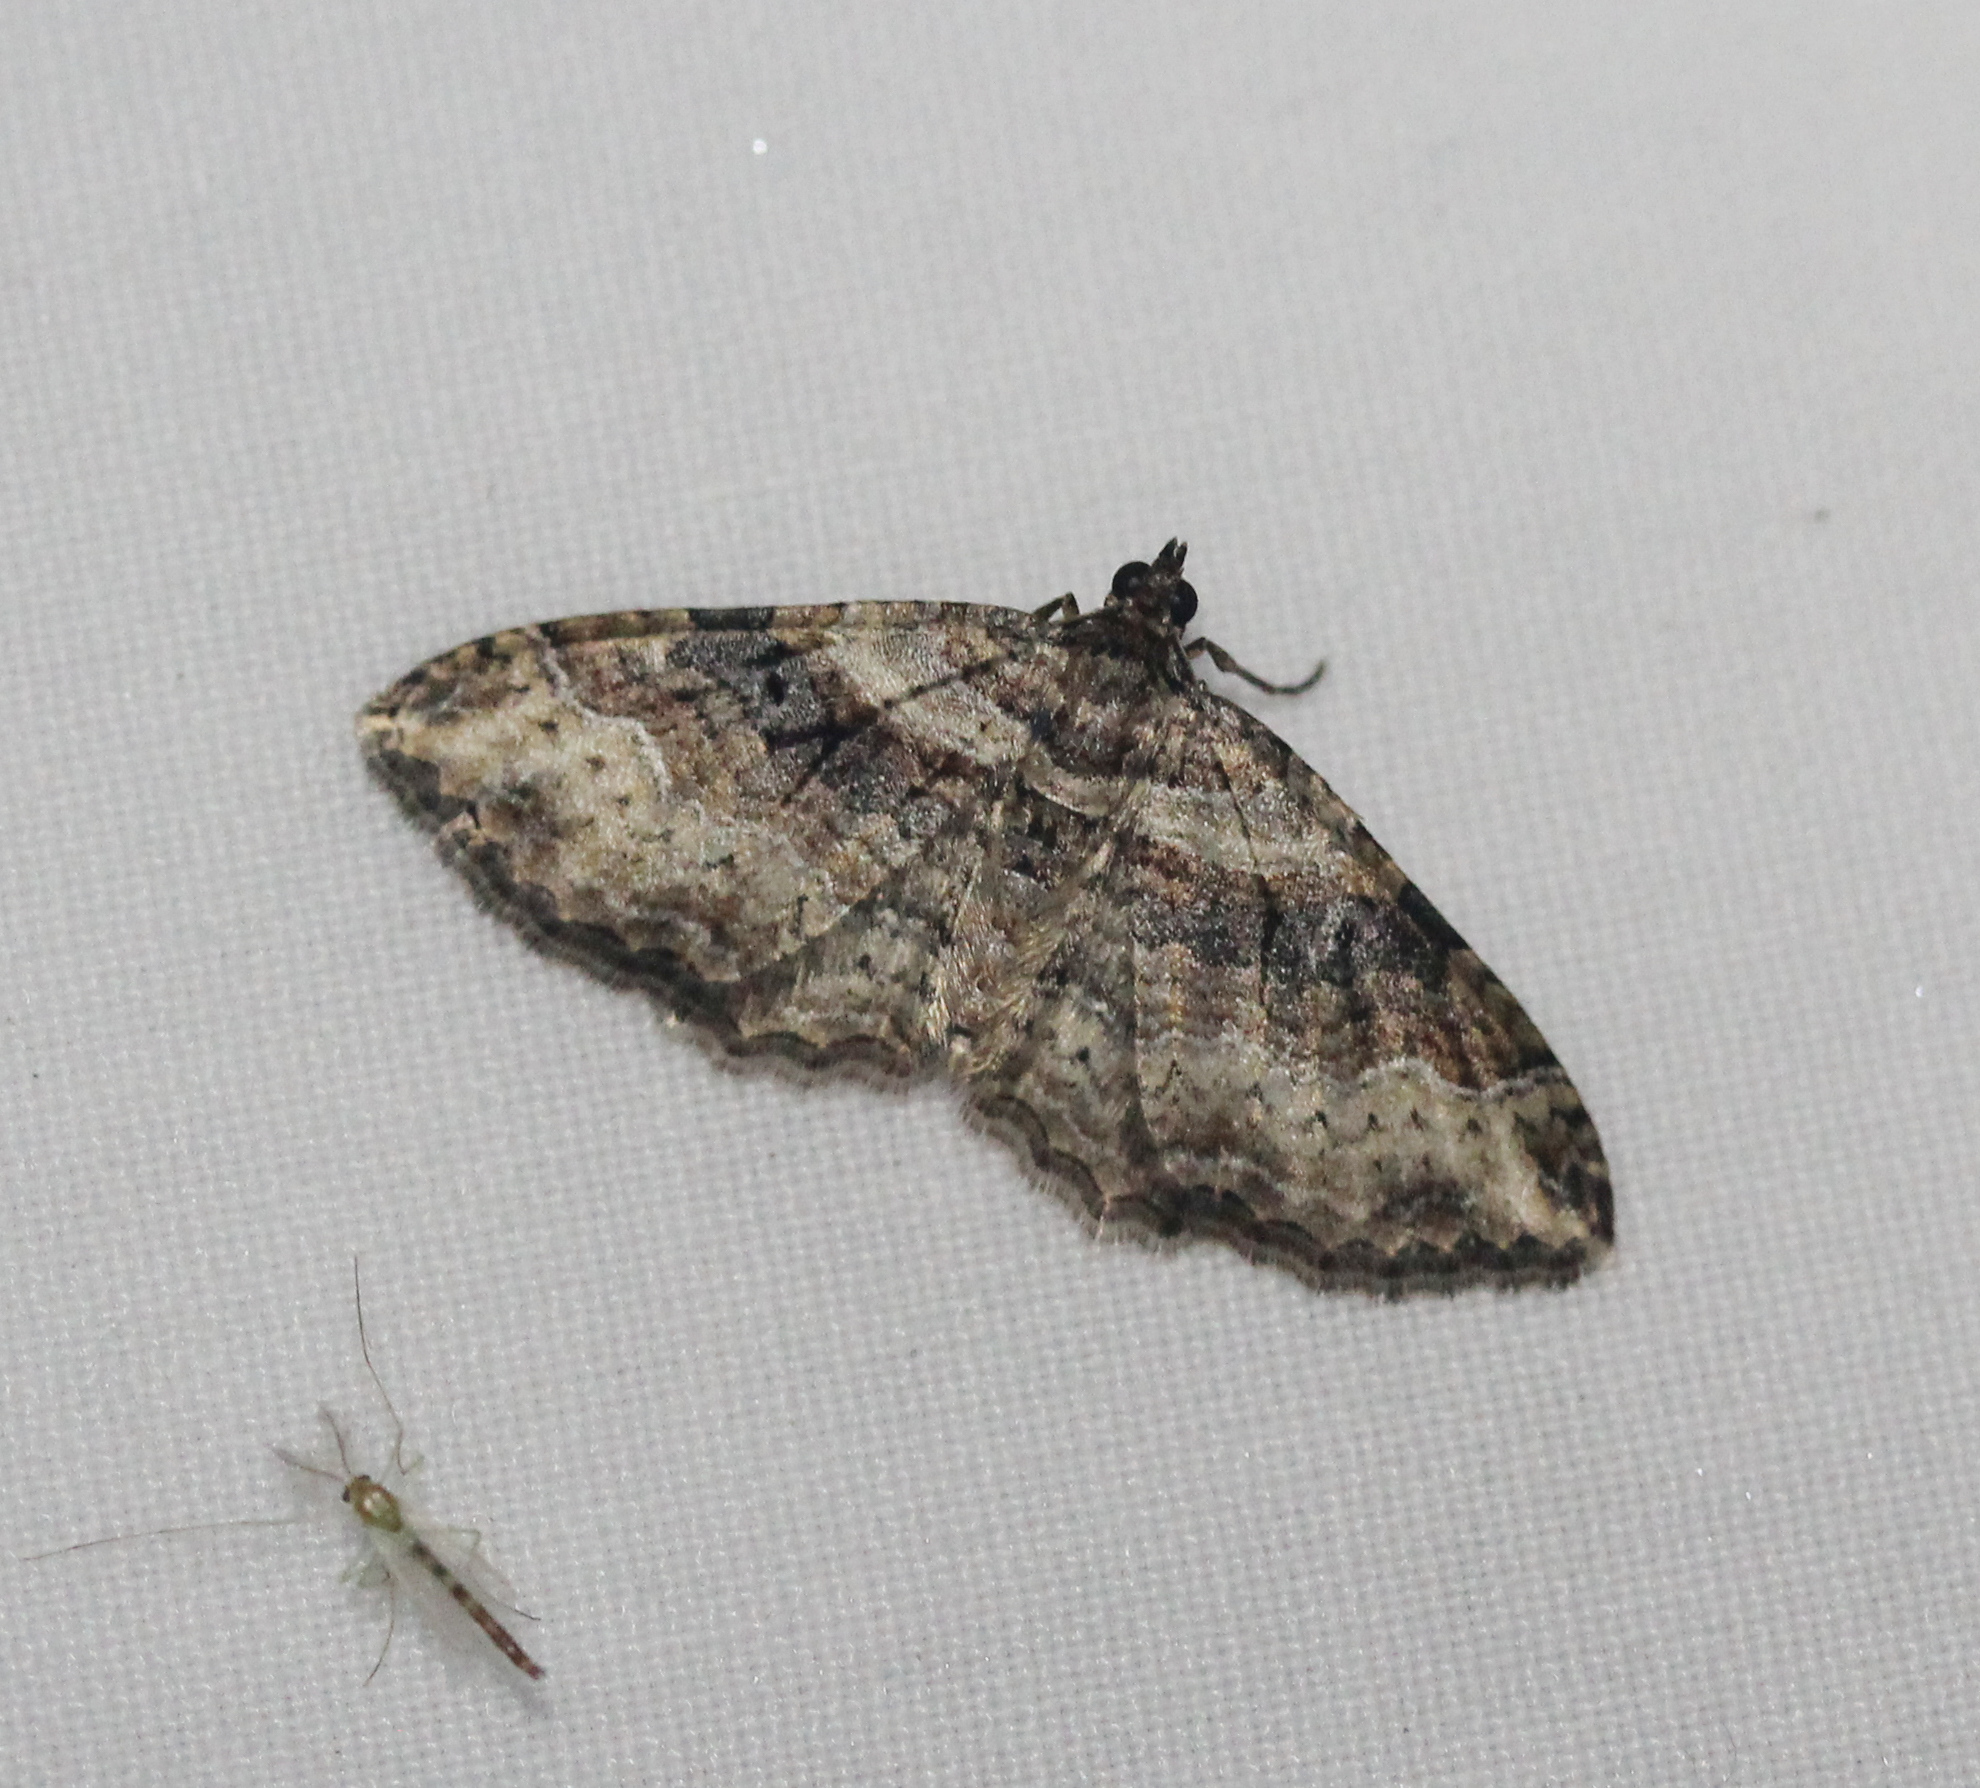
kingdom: Animalia
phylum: Arthropoda
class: Insecta
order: Lepidoptera
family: Geometridae
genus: Costaconvexa
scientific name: Costaconvexa centrostrigaria
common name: Bent-line carpet
